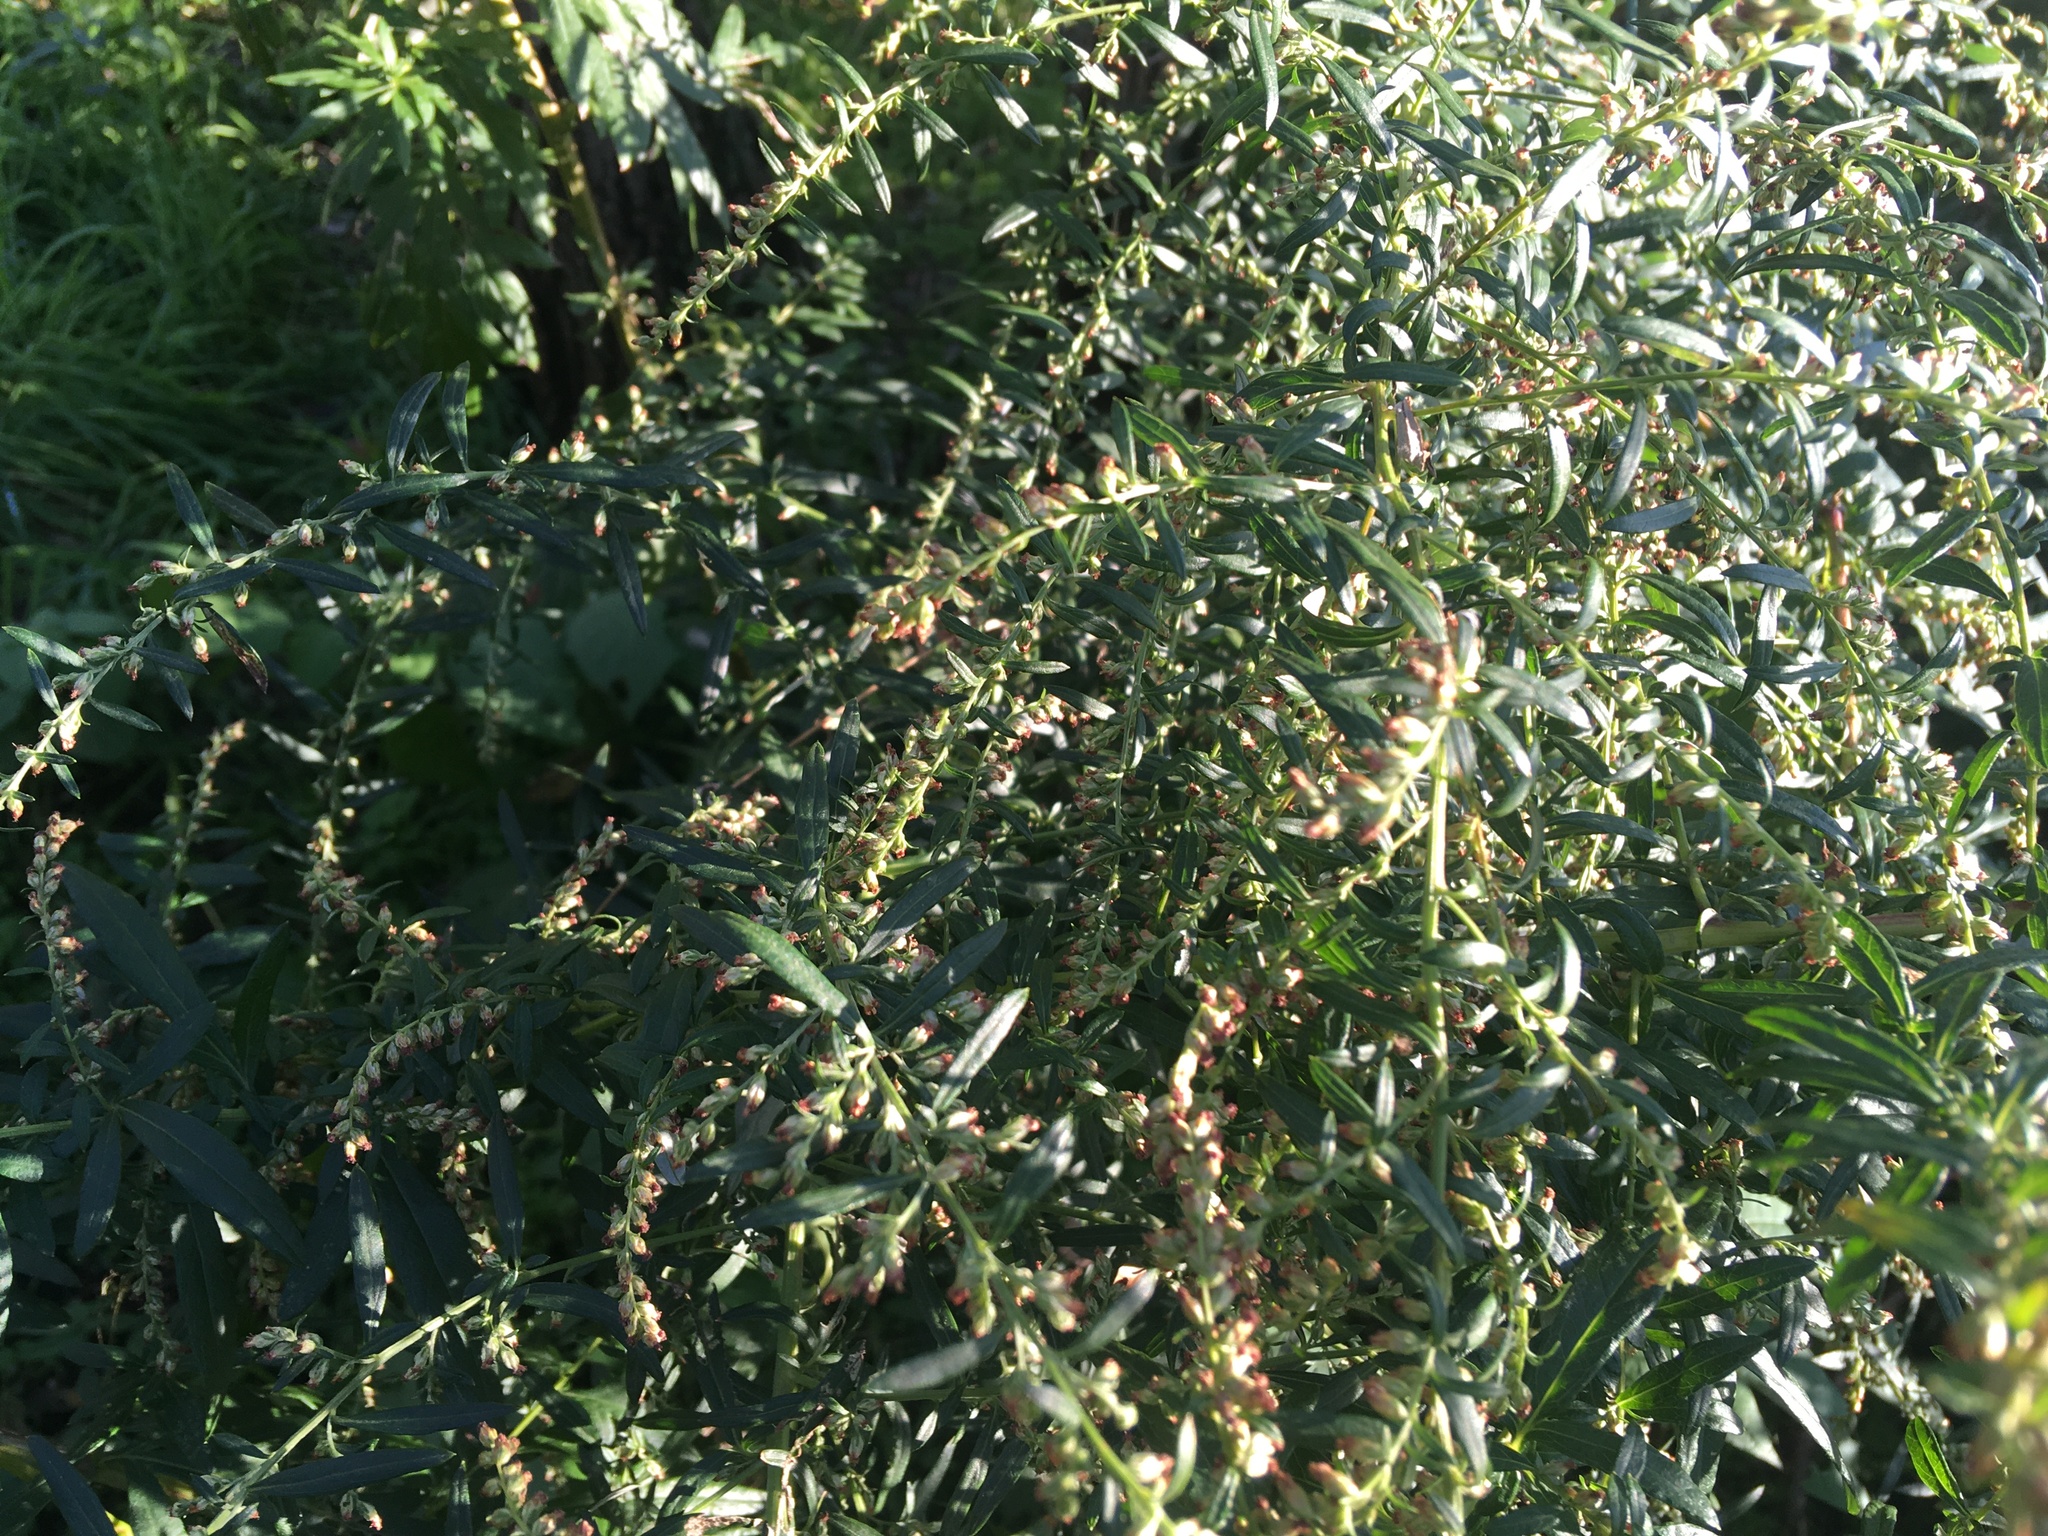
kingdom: Plantae
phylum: Tracheophyta
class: Magnoliopsida
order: Asterales
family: Asteraceae
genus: Artemisia
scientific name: Artemisia vulgaris
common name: Mugwort
